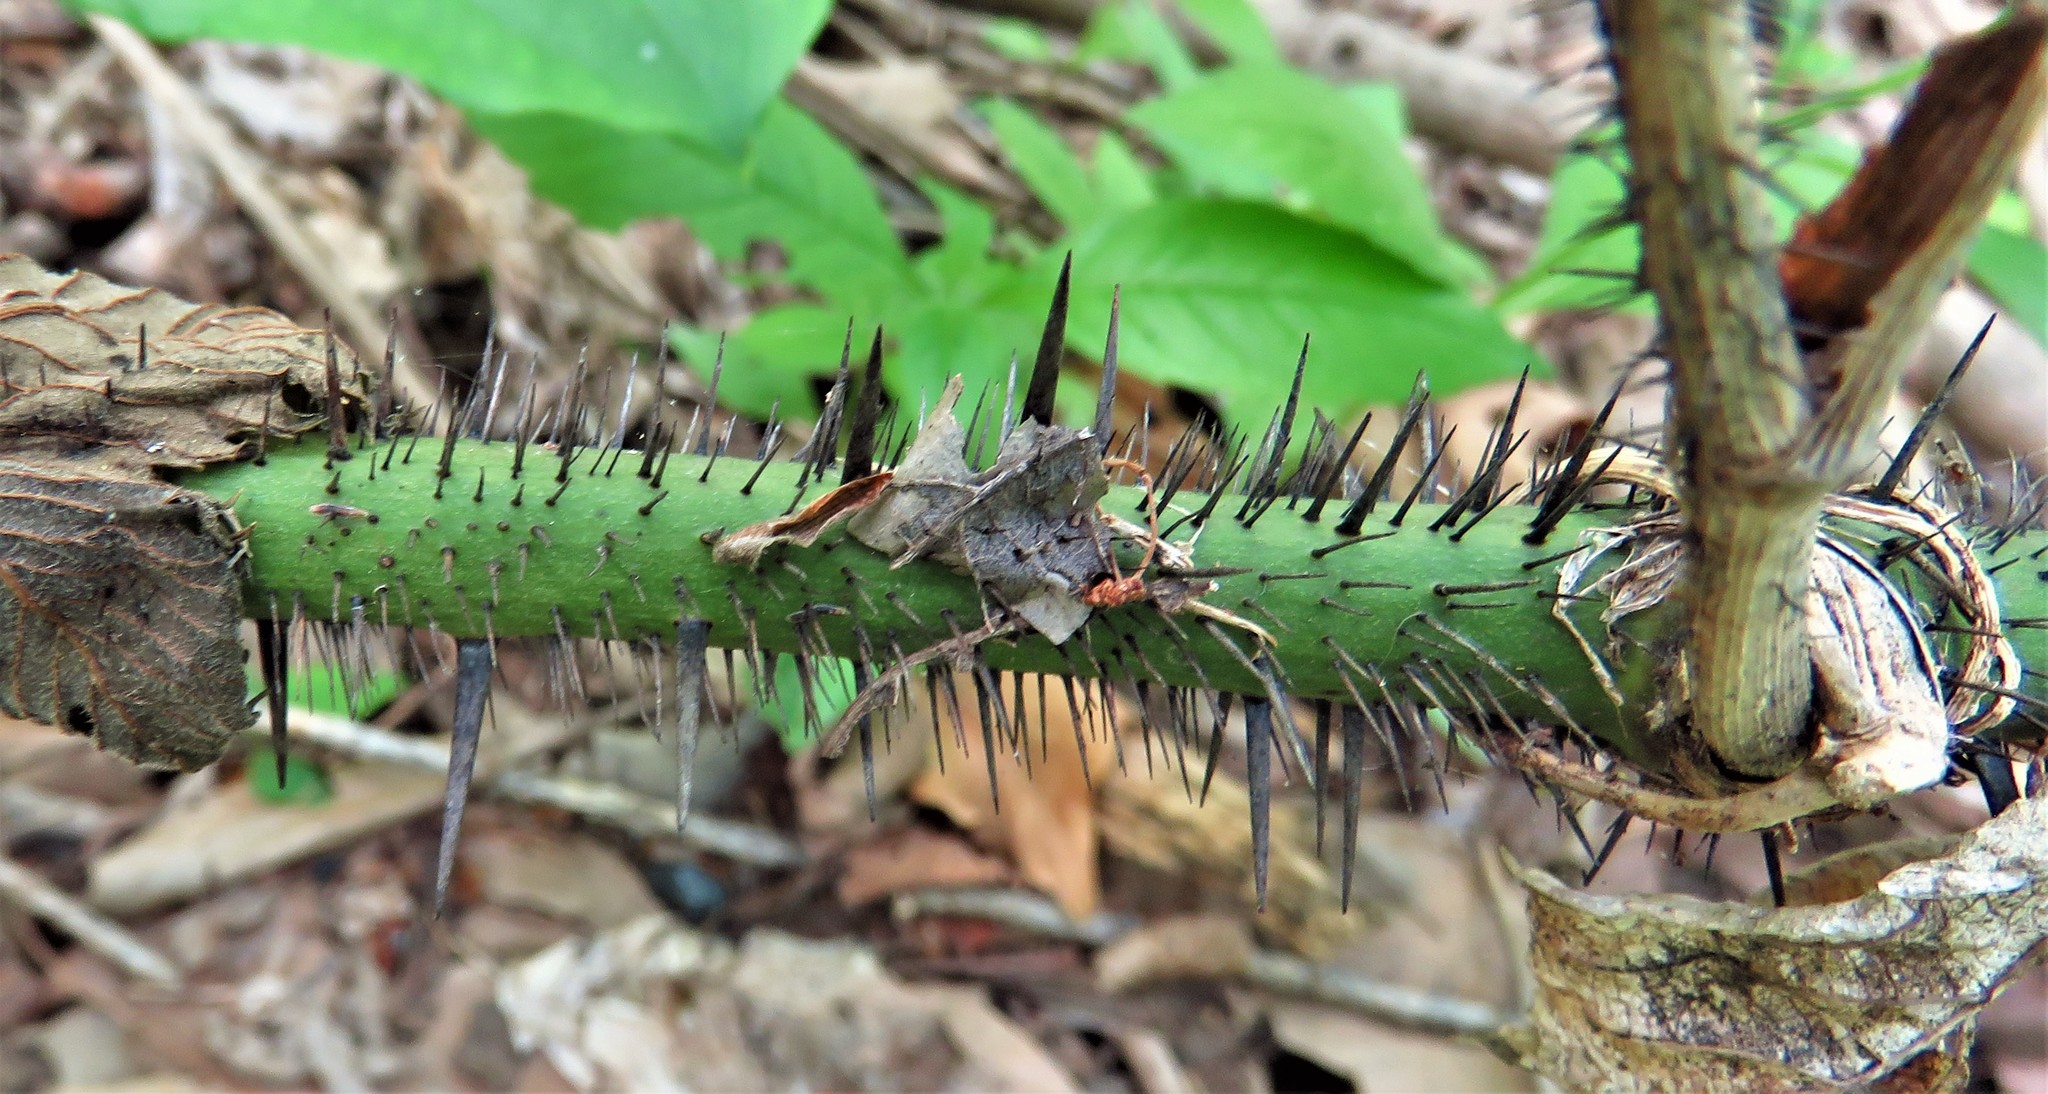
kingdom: Plantae
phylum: Tracheophyta
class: Liliopsida
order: Liliales
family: Smilacaceae
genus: Smilax
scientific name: Smilax tamnoides
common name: Hellfetter
